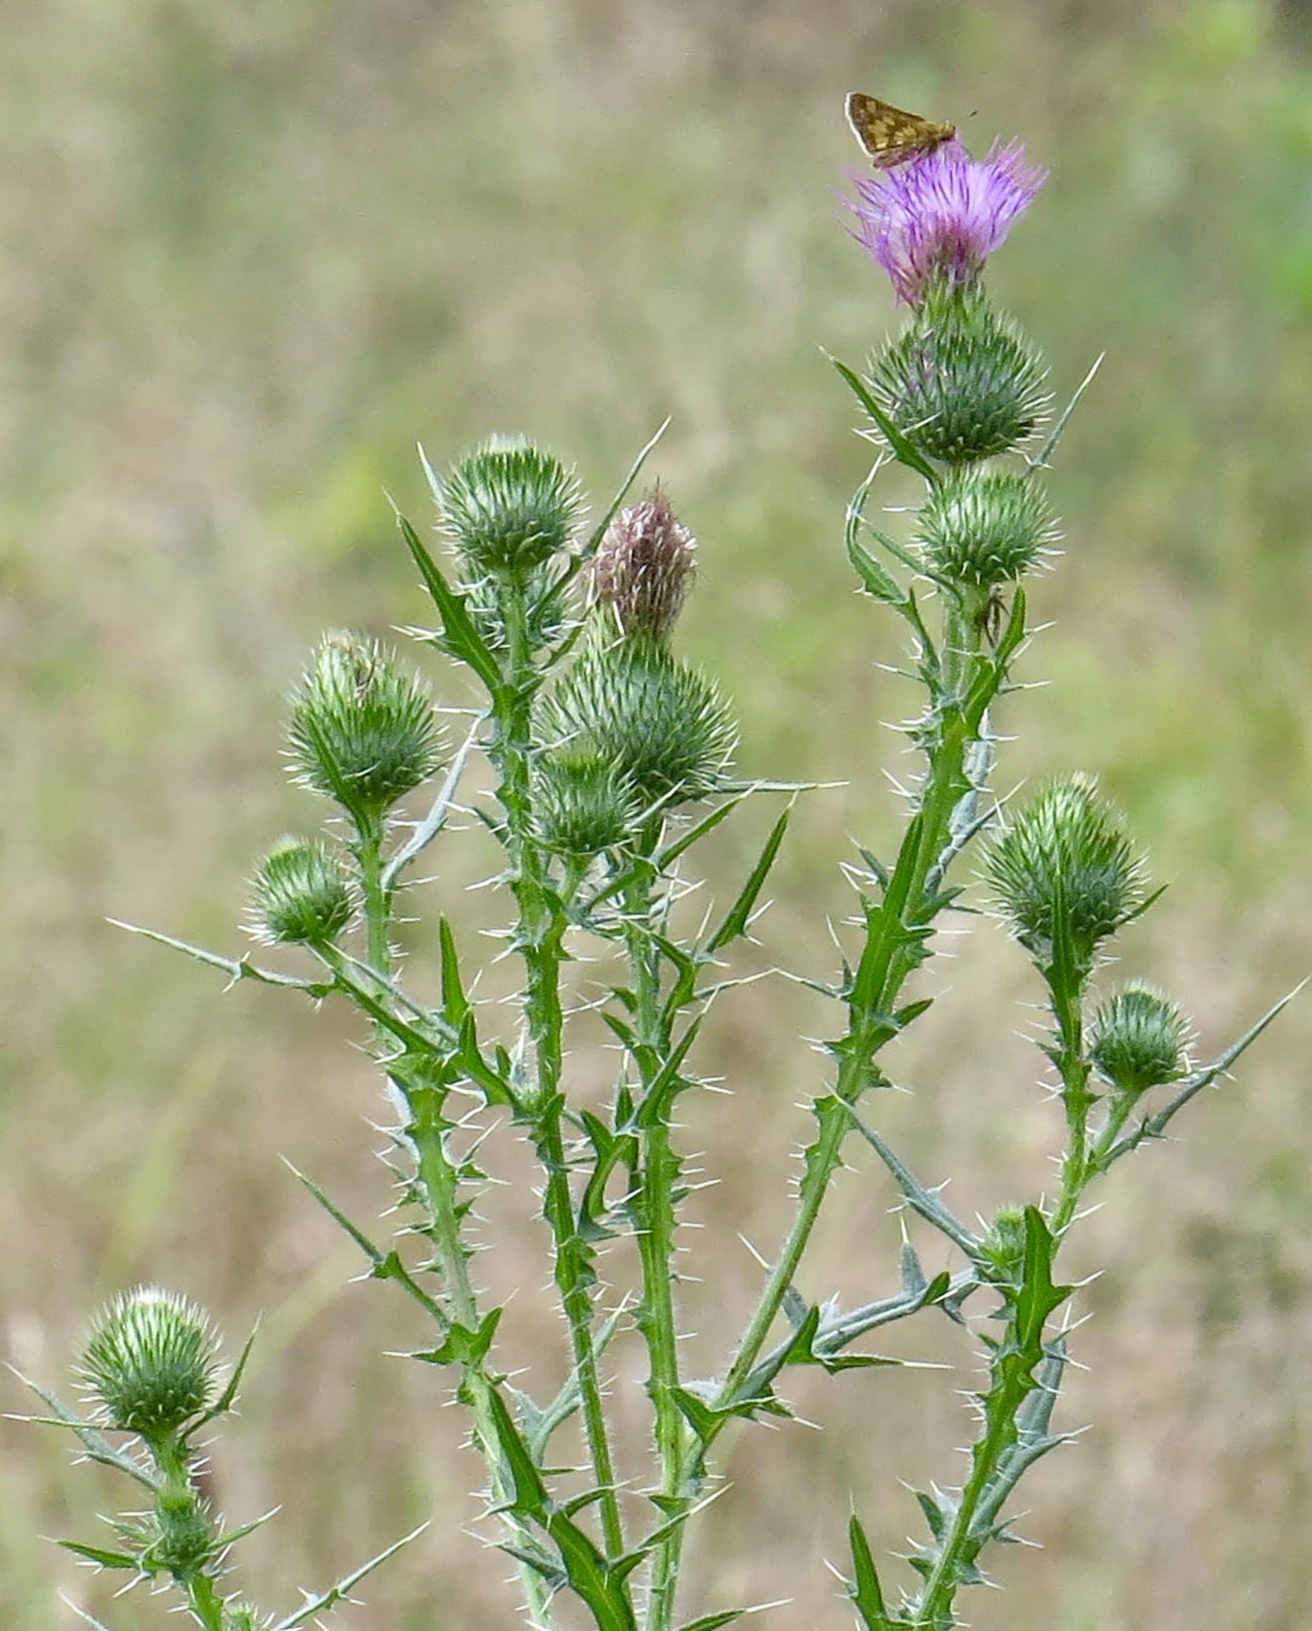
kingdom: Plantae
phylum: Tracheophyta
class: Magnoliopsida
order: Asterales
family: Asteraceae
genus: Cirsium
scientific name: Cirsium vulgare
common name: Bull thistle
